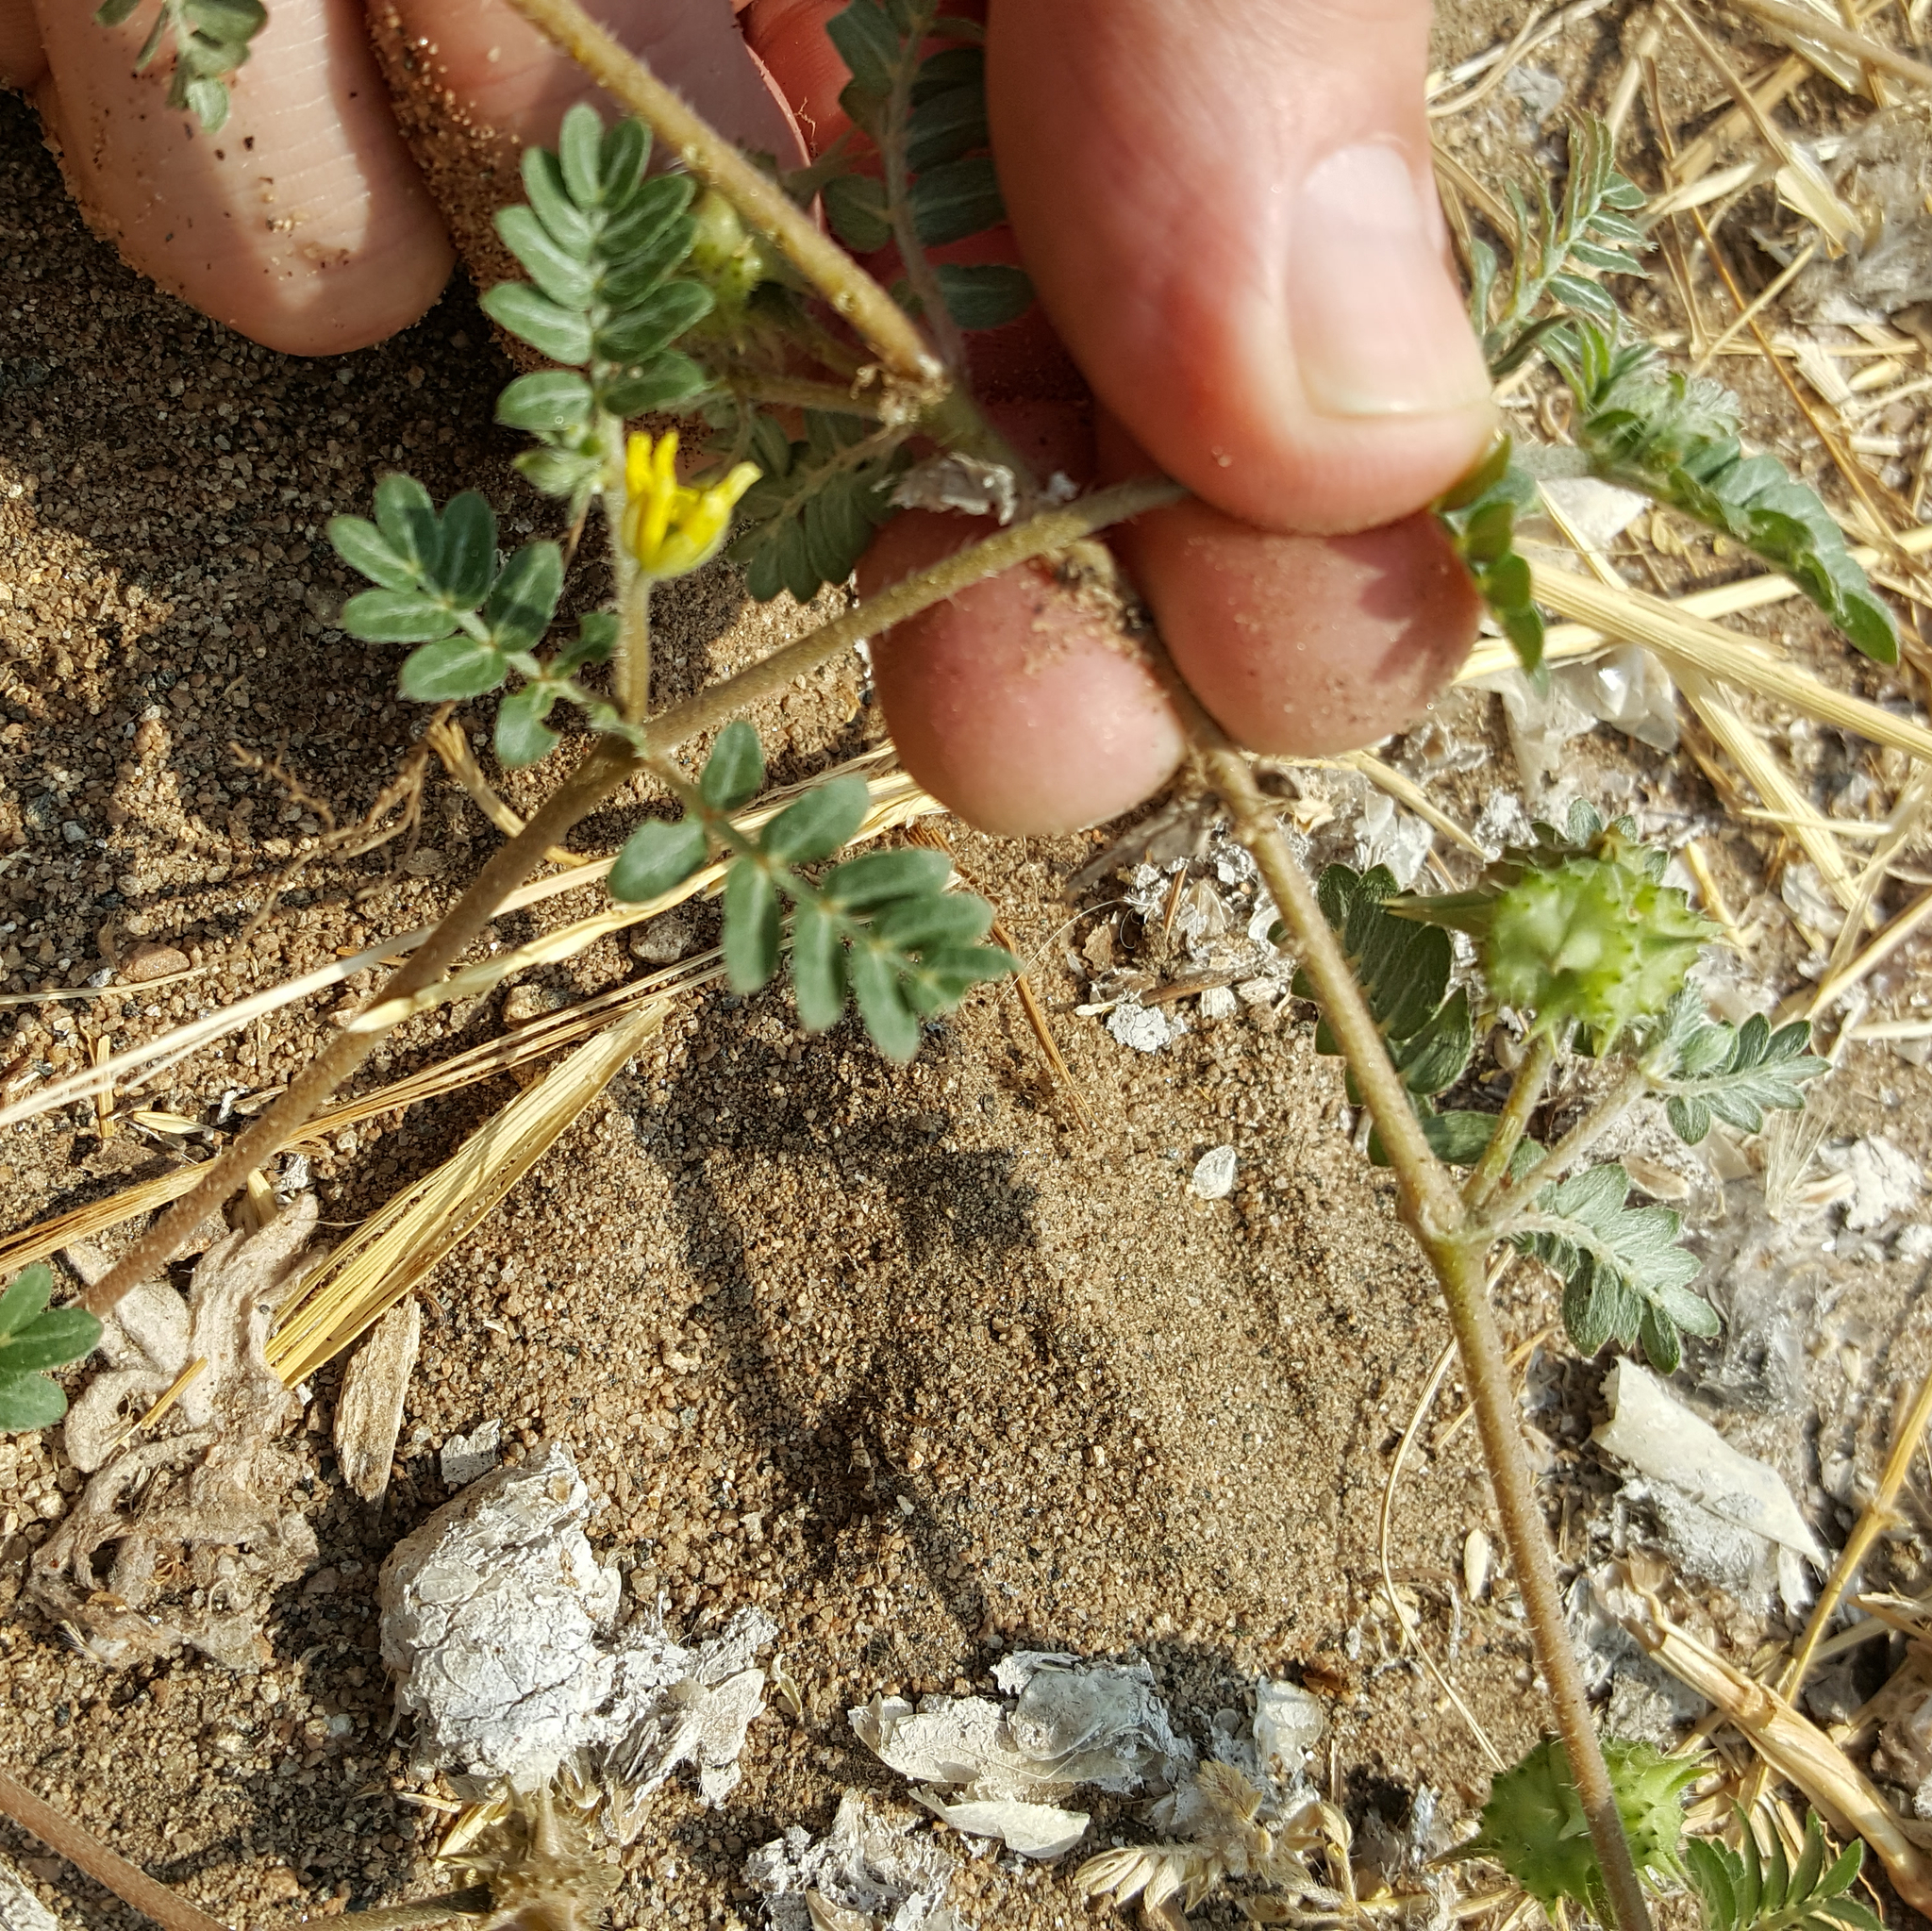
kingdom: Plantae
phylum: Tracheophyta
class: Magnoliopsida
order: Zygophyllales
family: Zygophyllaceae
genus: Tribulus
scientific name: Tribulus terrestris
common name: Puncturevine
